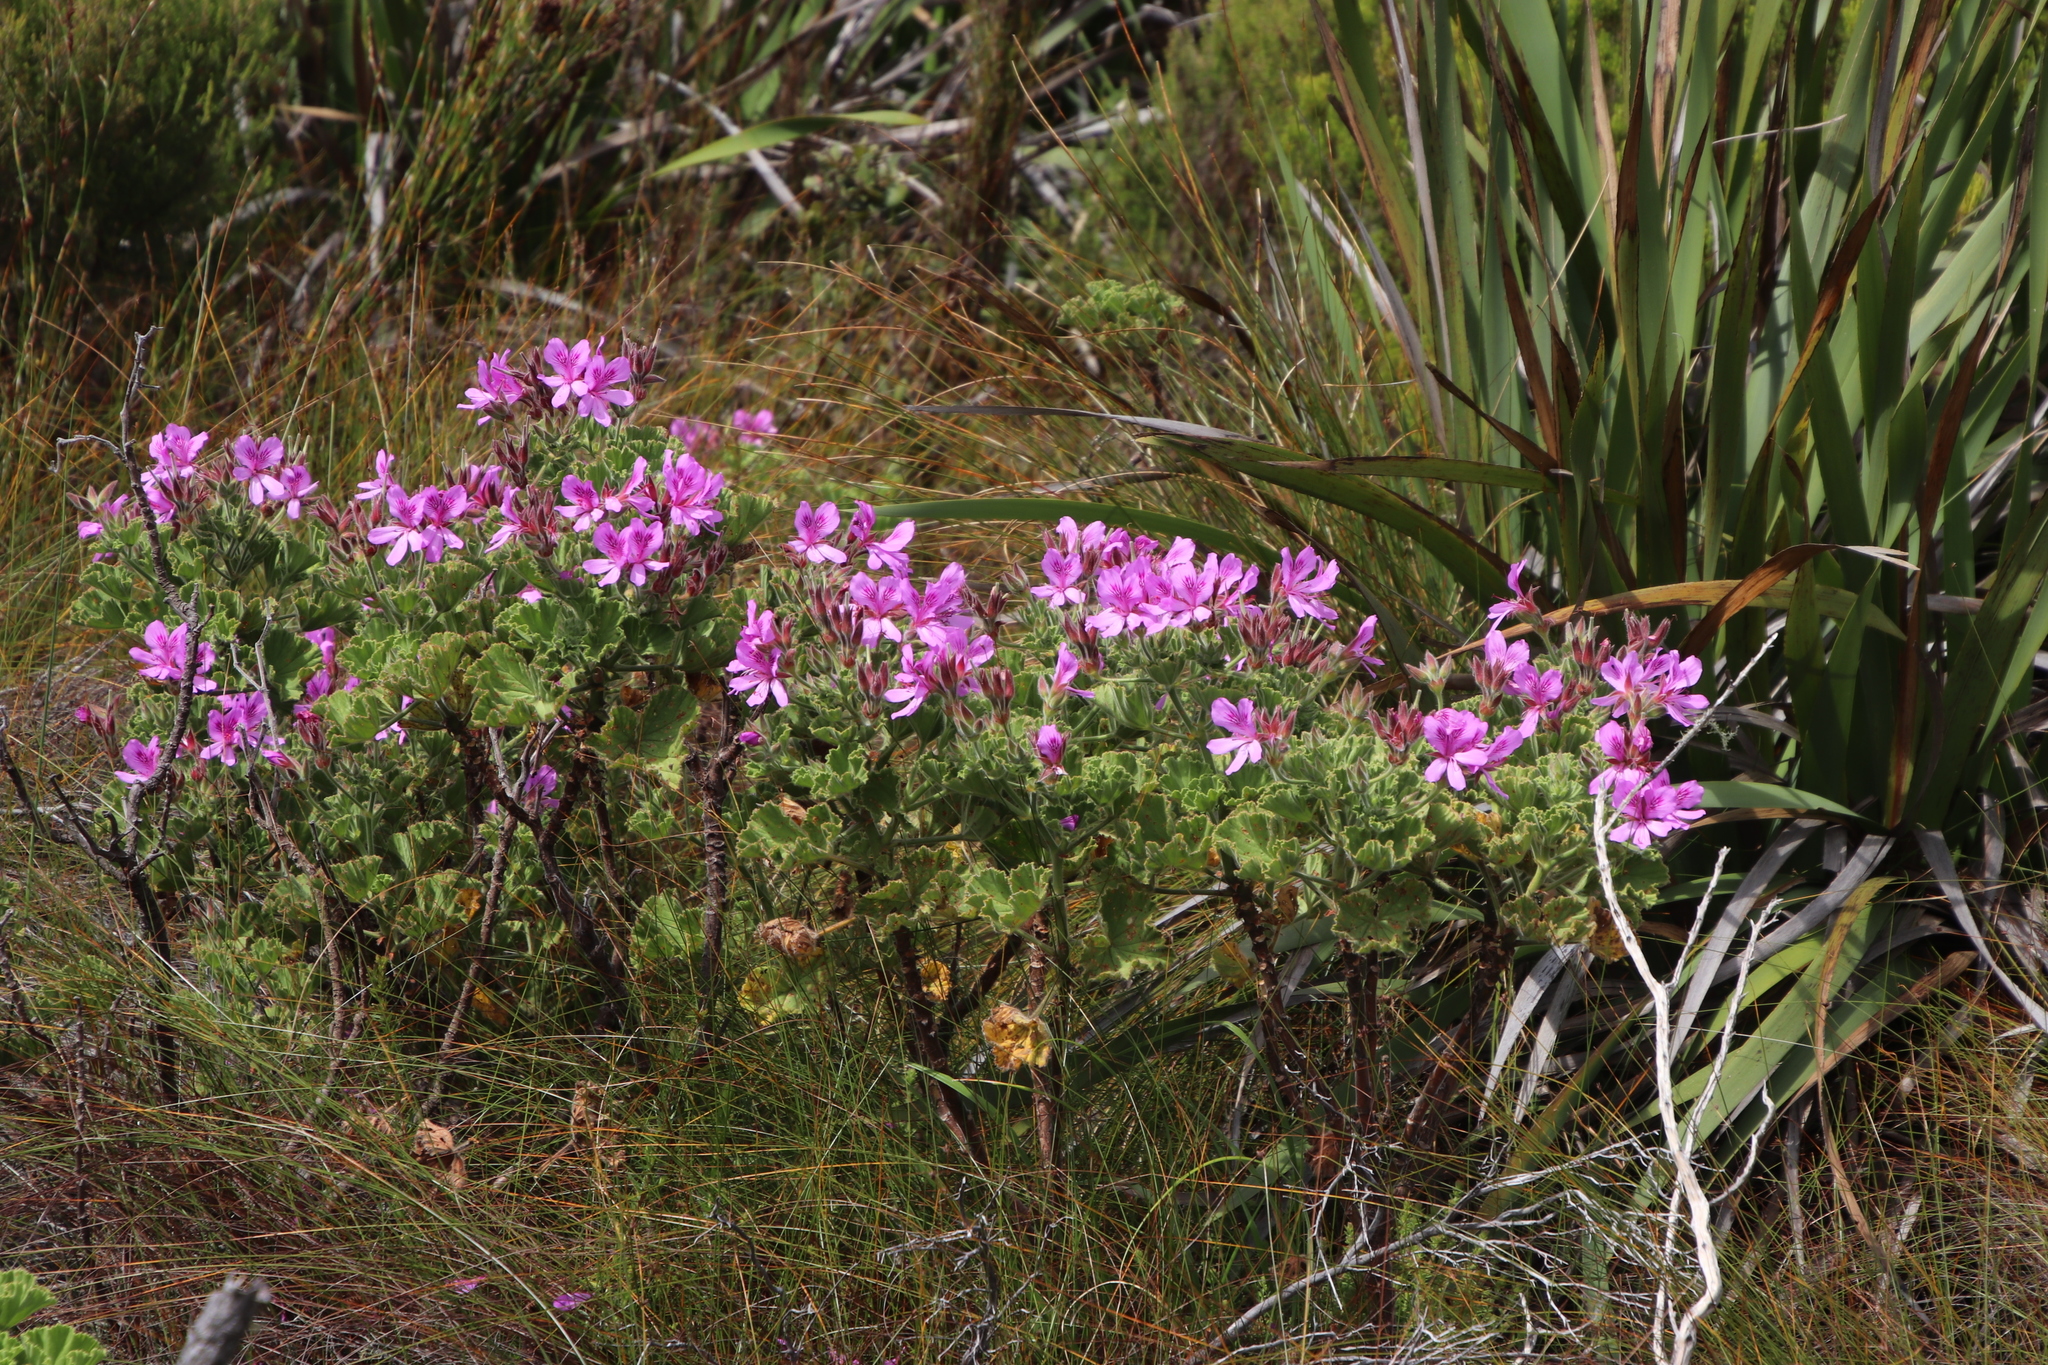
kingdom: Plantae
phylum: Tracheophyta
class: Magnoliopsida
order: Geraniales
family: Geraniaceae
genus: Pelargonium
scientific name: Pelargonium cucullatum
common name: Tree pelargonium
